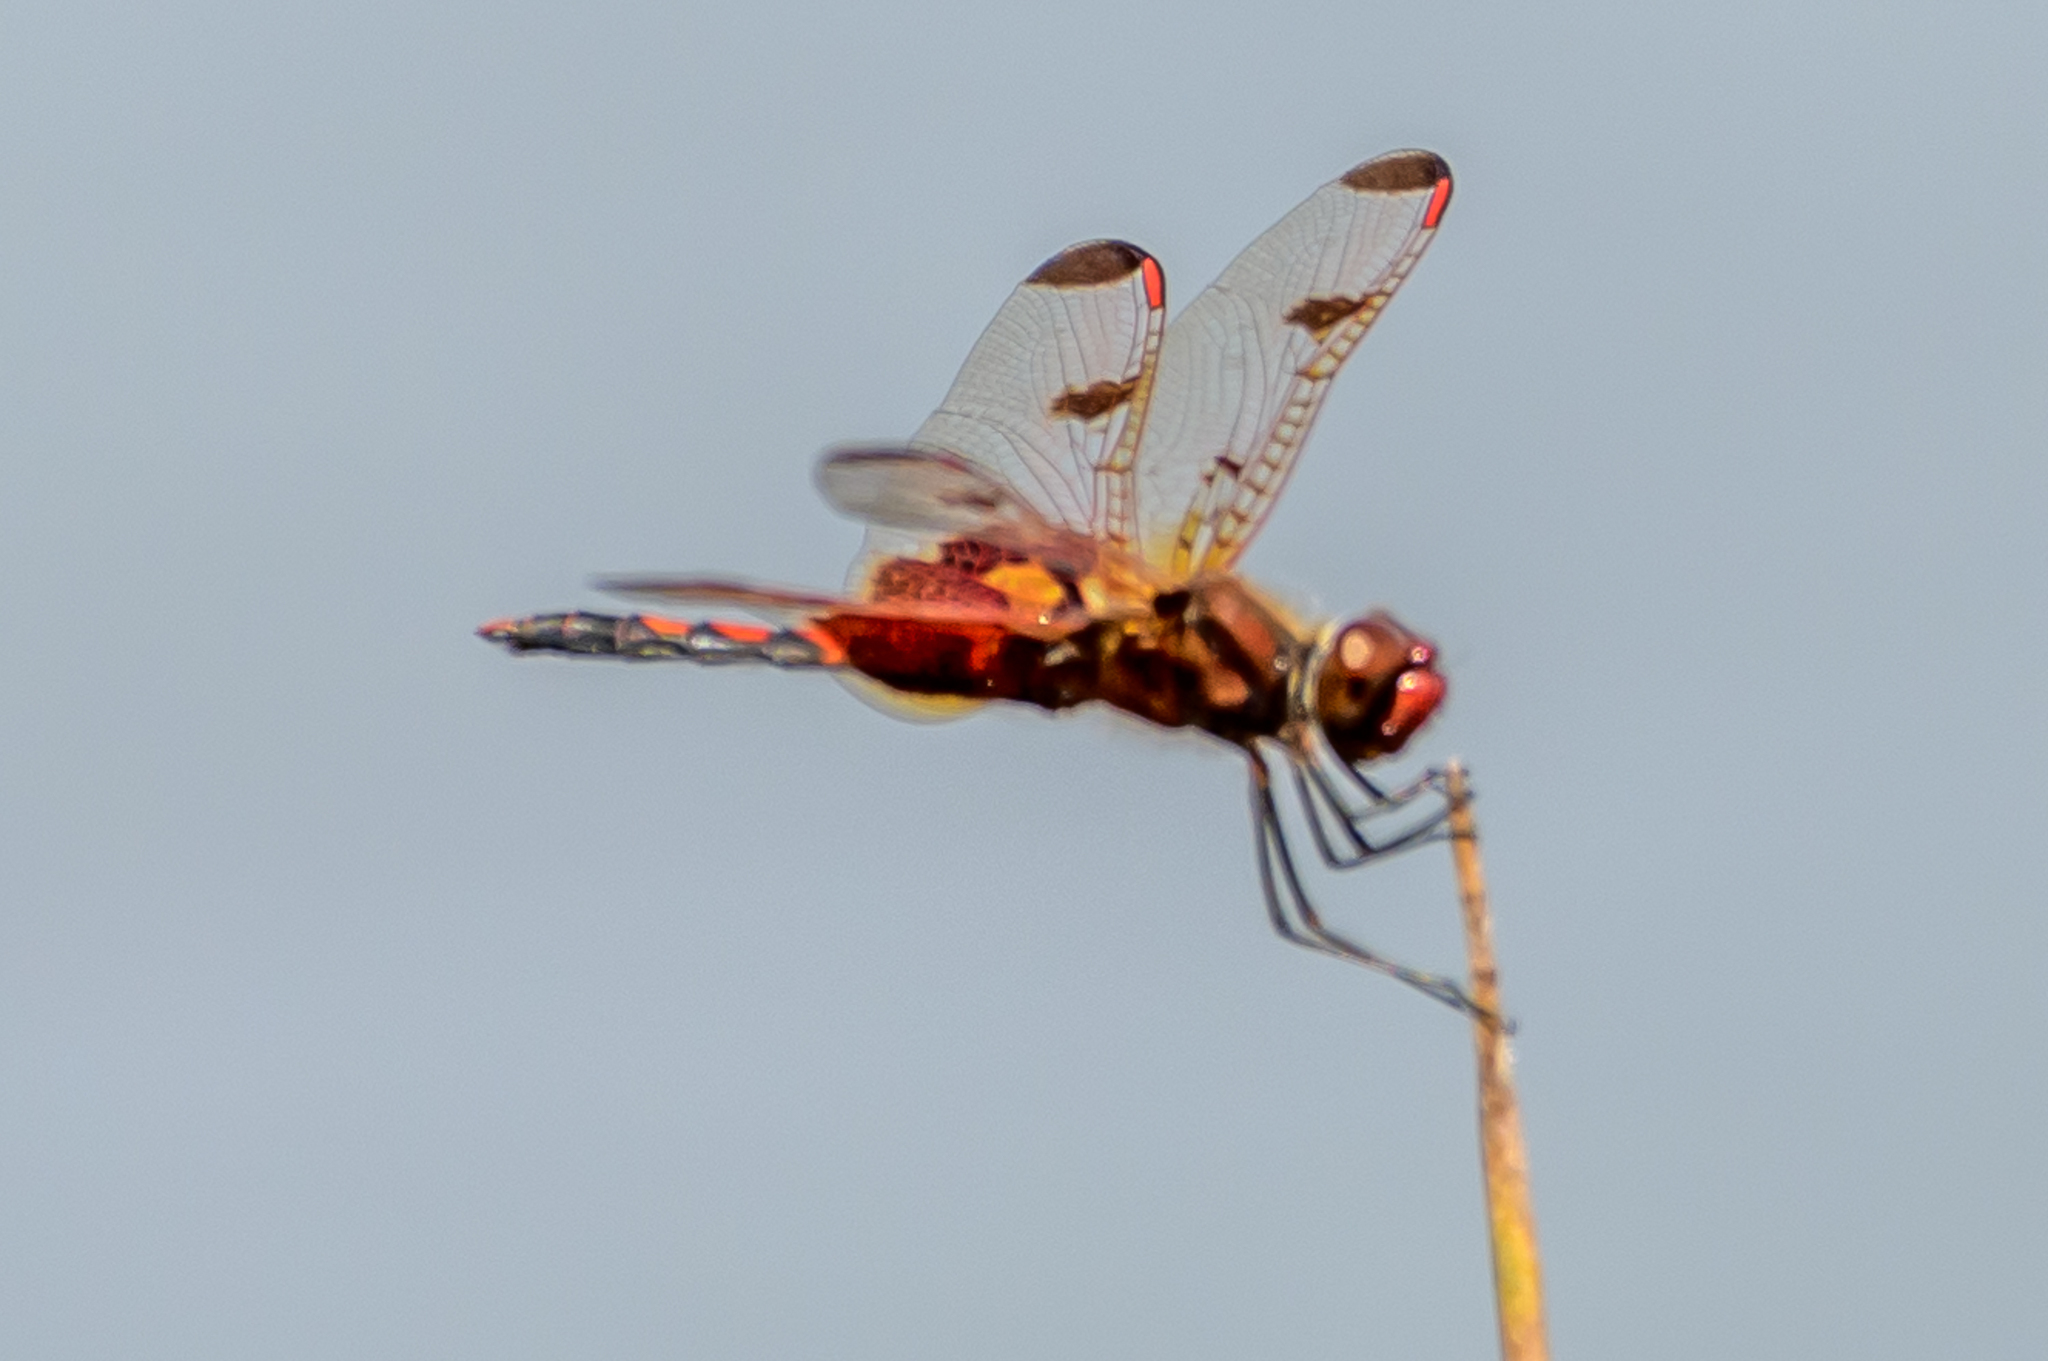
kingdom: Animalia
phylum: Arthropoda
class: Insecta
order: Odonata
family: Libellulidae
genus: Celithemis
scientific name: Celithemis elisa
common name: Calico pennant
